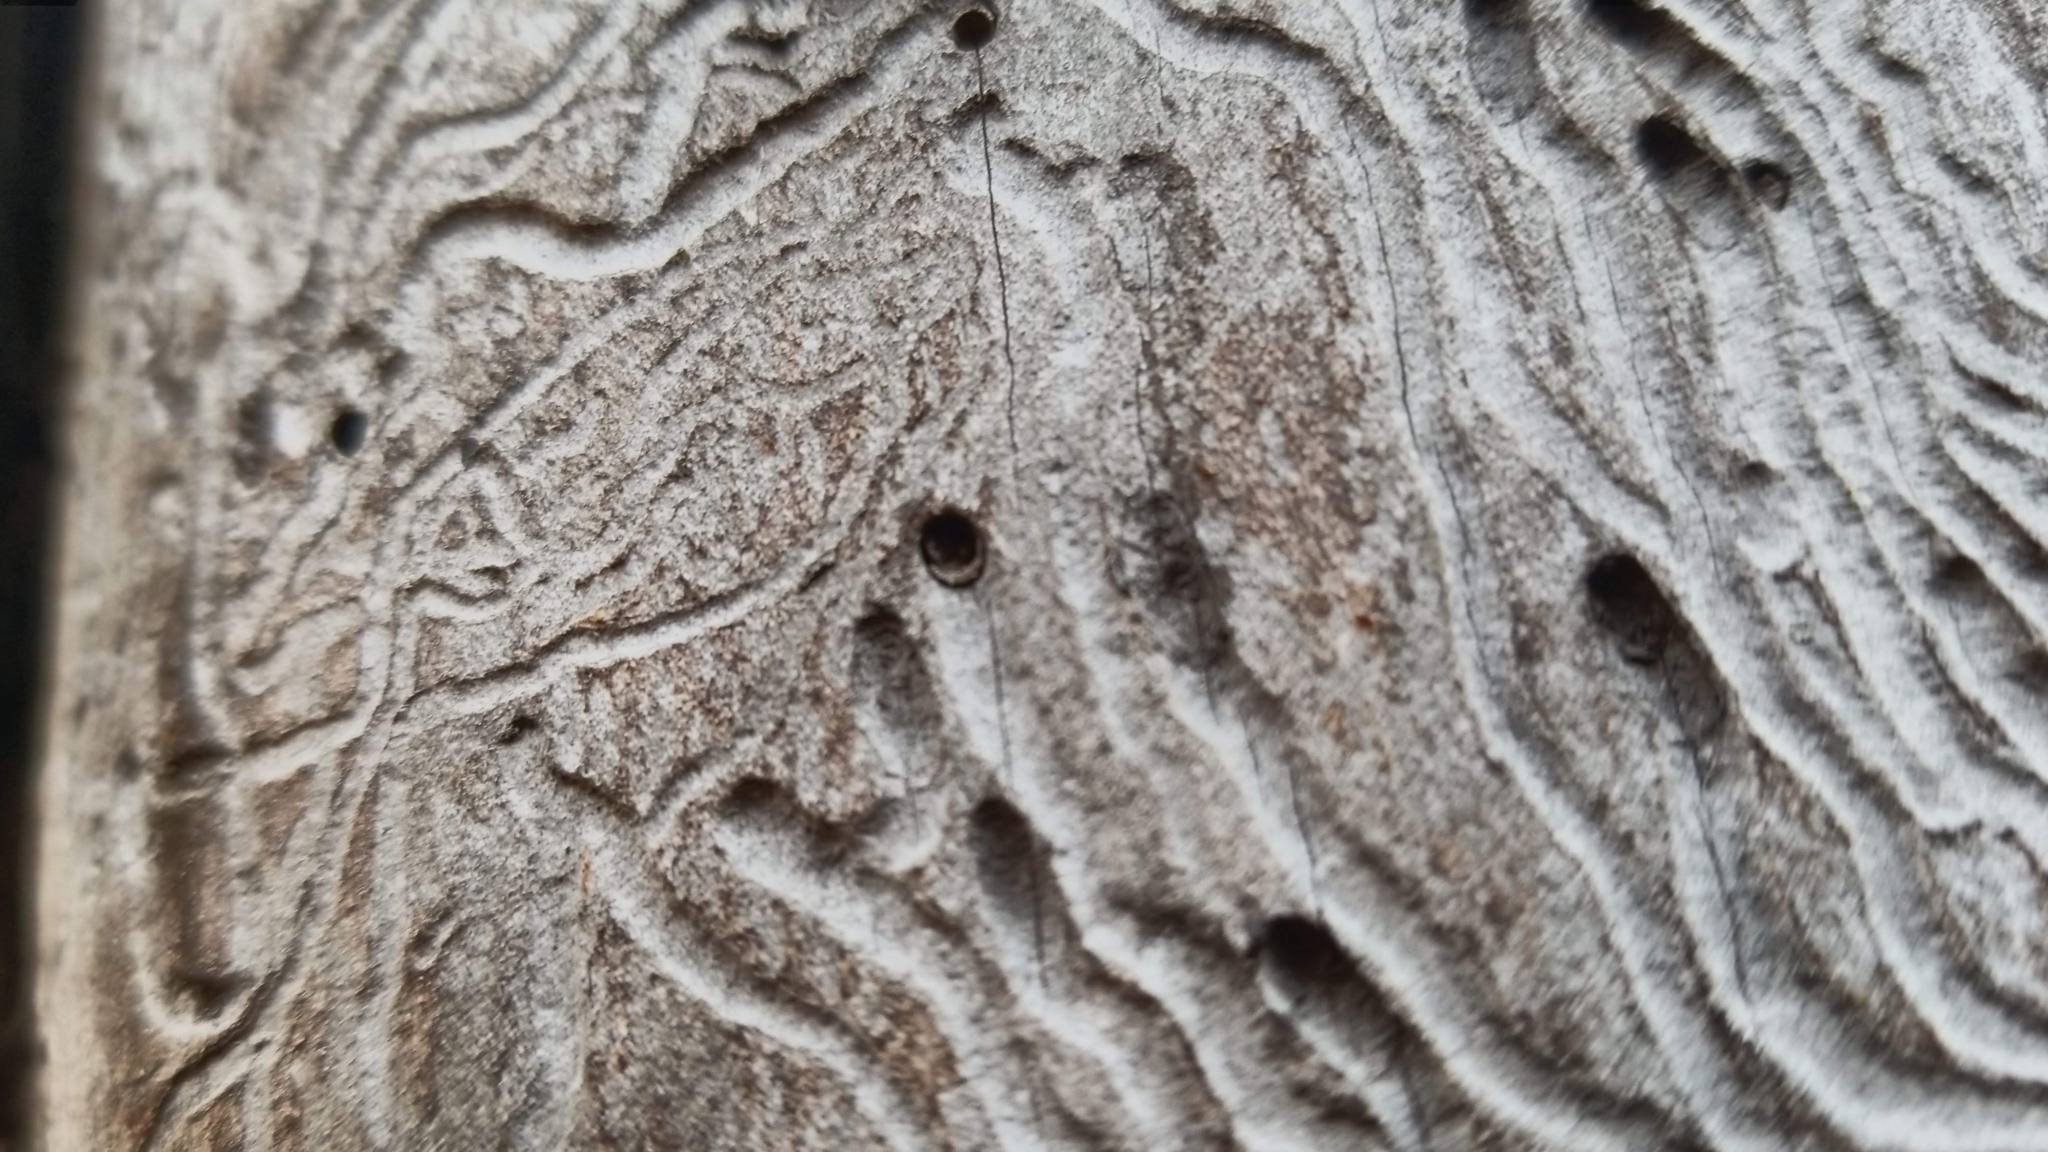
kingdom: Animalia
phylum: Arthropoda
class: Insecta
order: Coleoptera
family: Buprestidae
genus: Agrilus
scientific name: Agrilus planipennis
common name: Emerald ash borer
